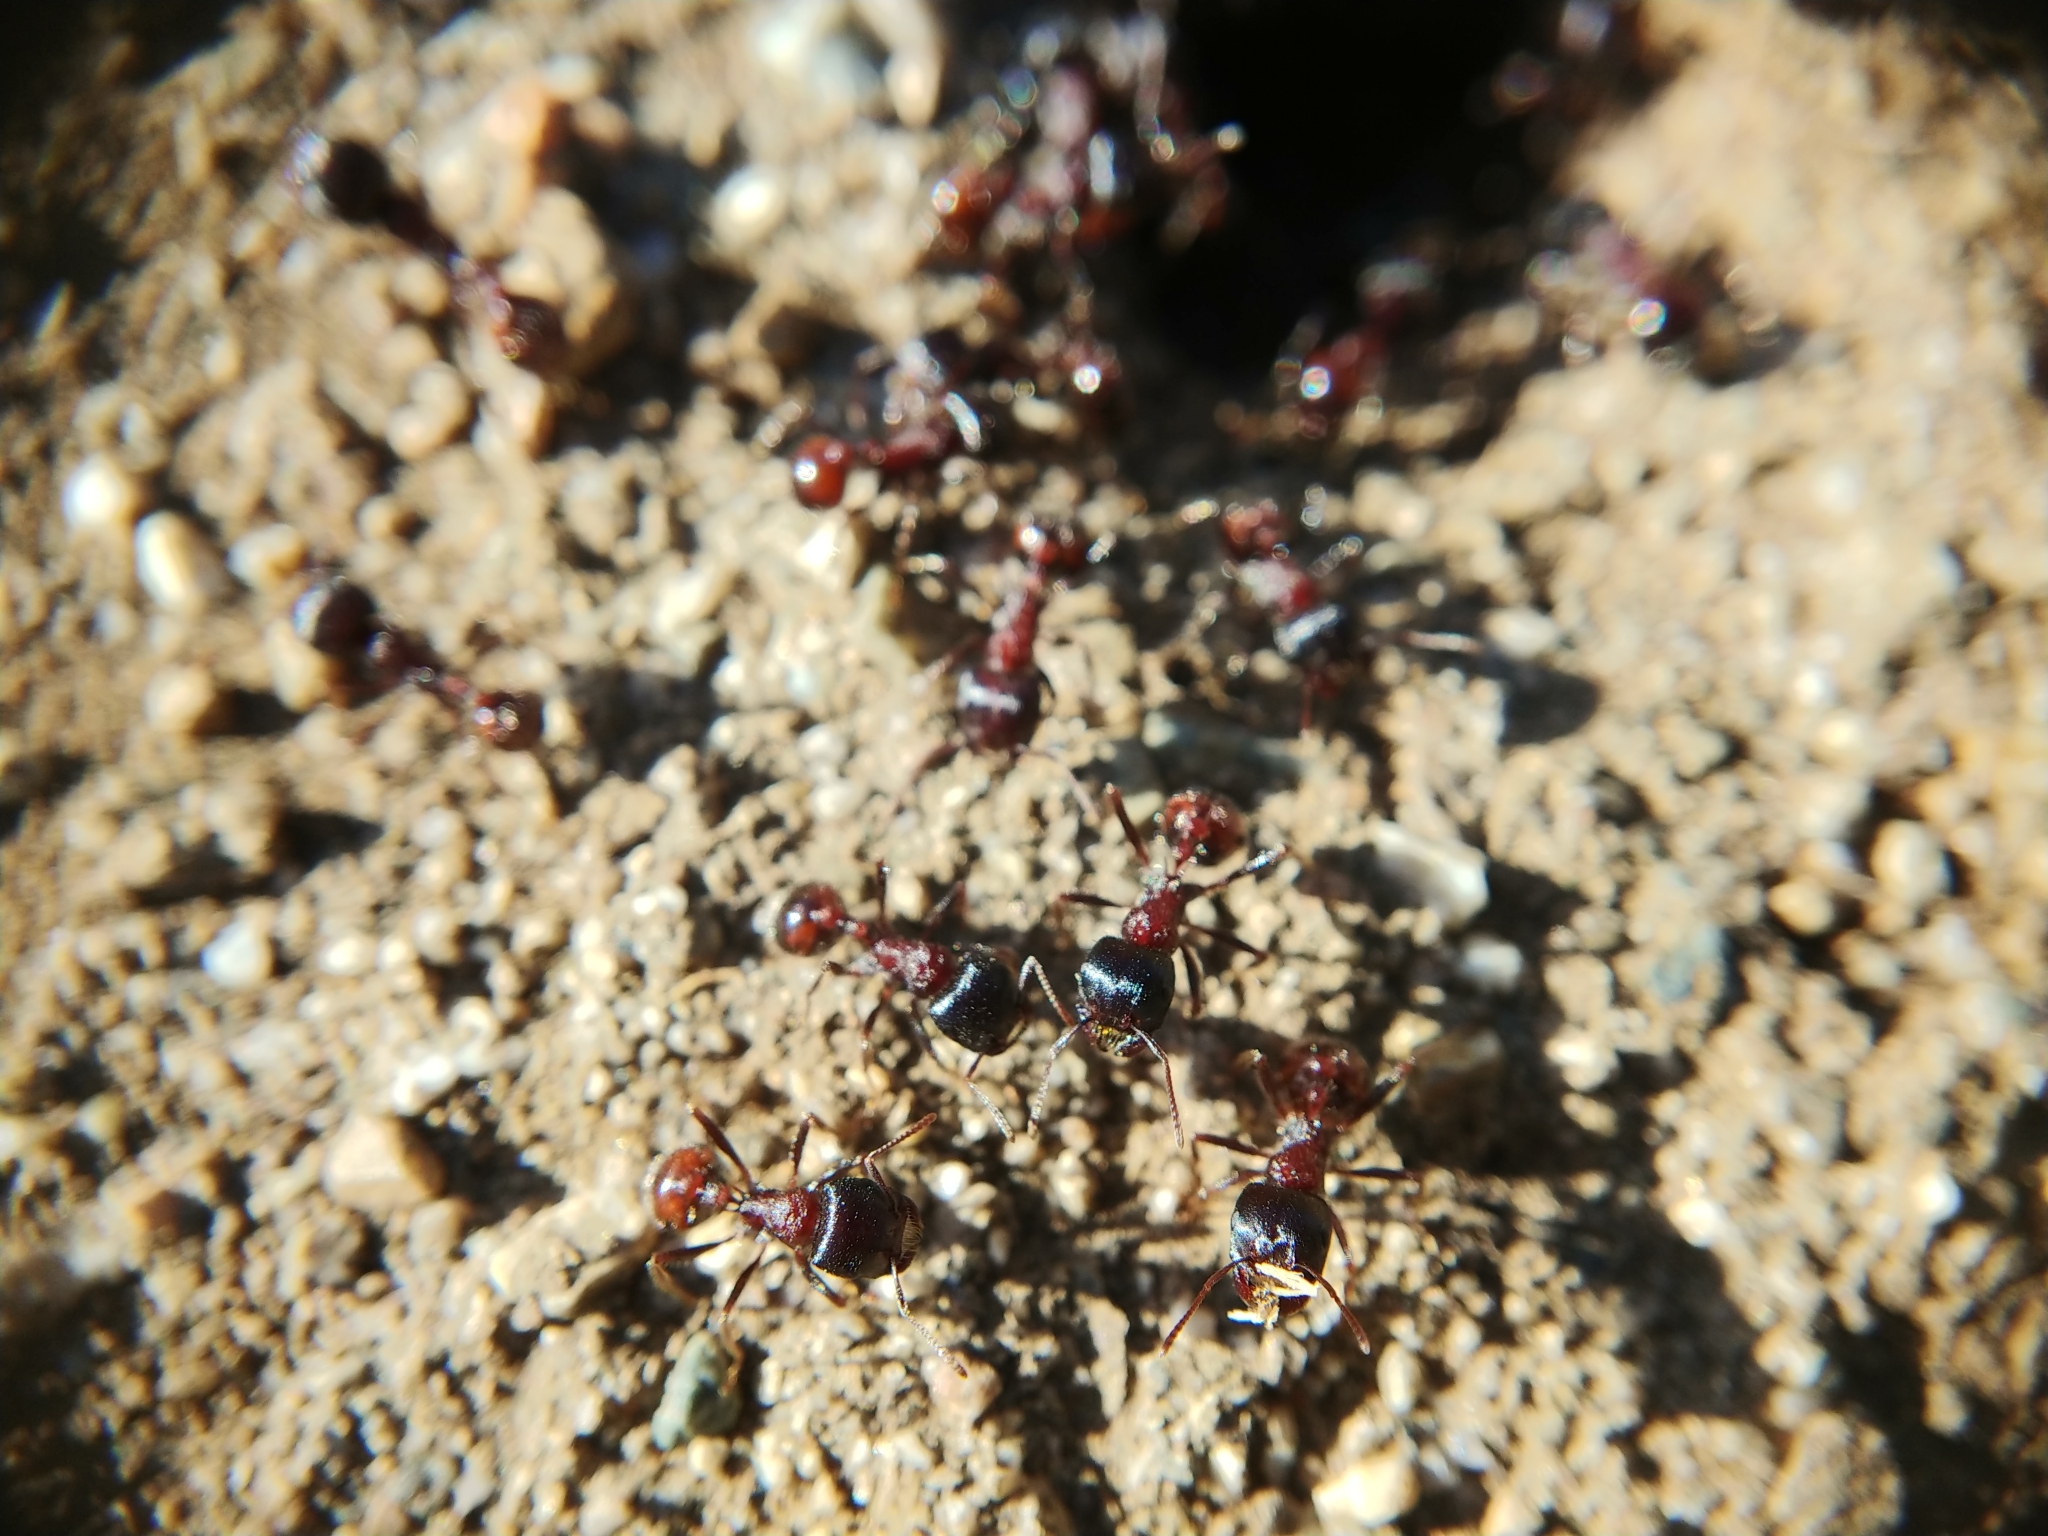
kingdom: Animalia
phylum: Arthropoda
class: Insecta
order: Hymenoptera
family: Formicidae
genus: Pogonomyrmex
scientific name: Pogonomyrmex rugosus
